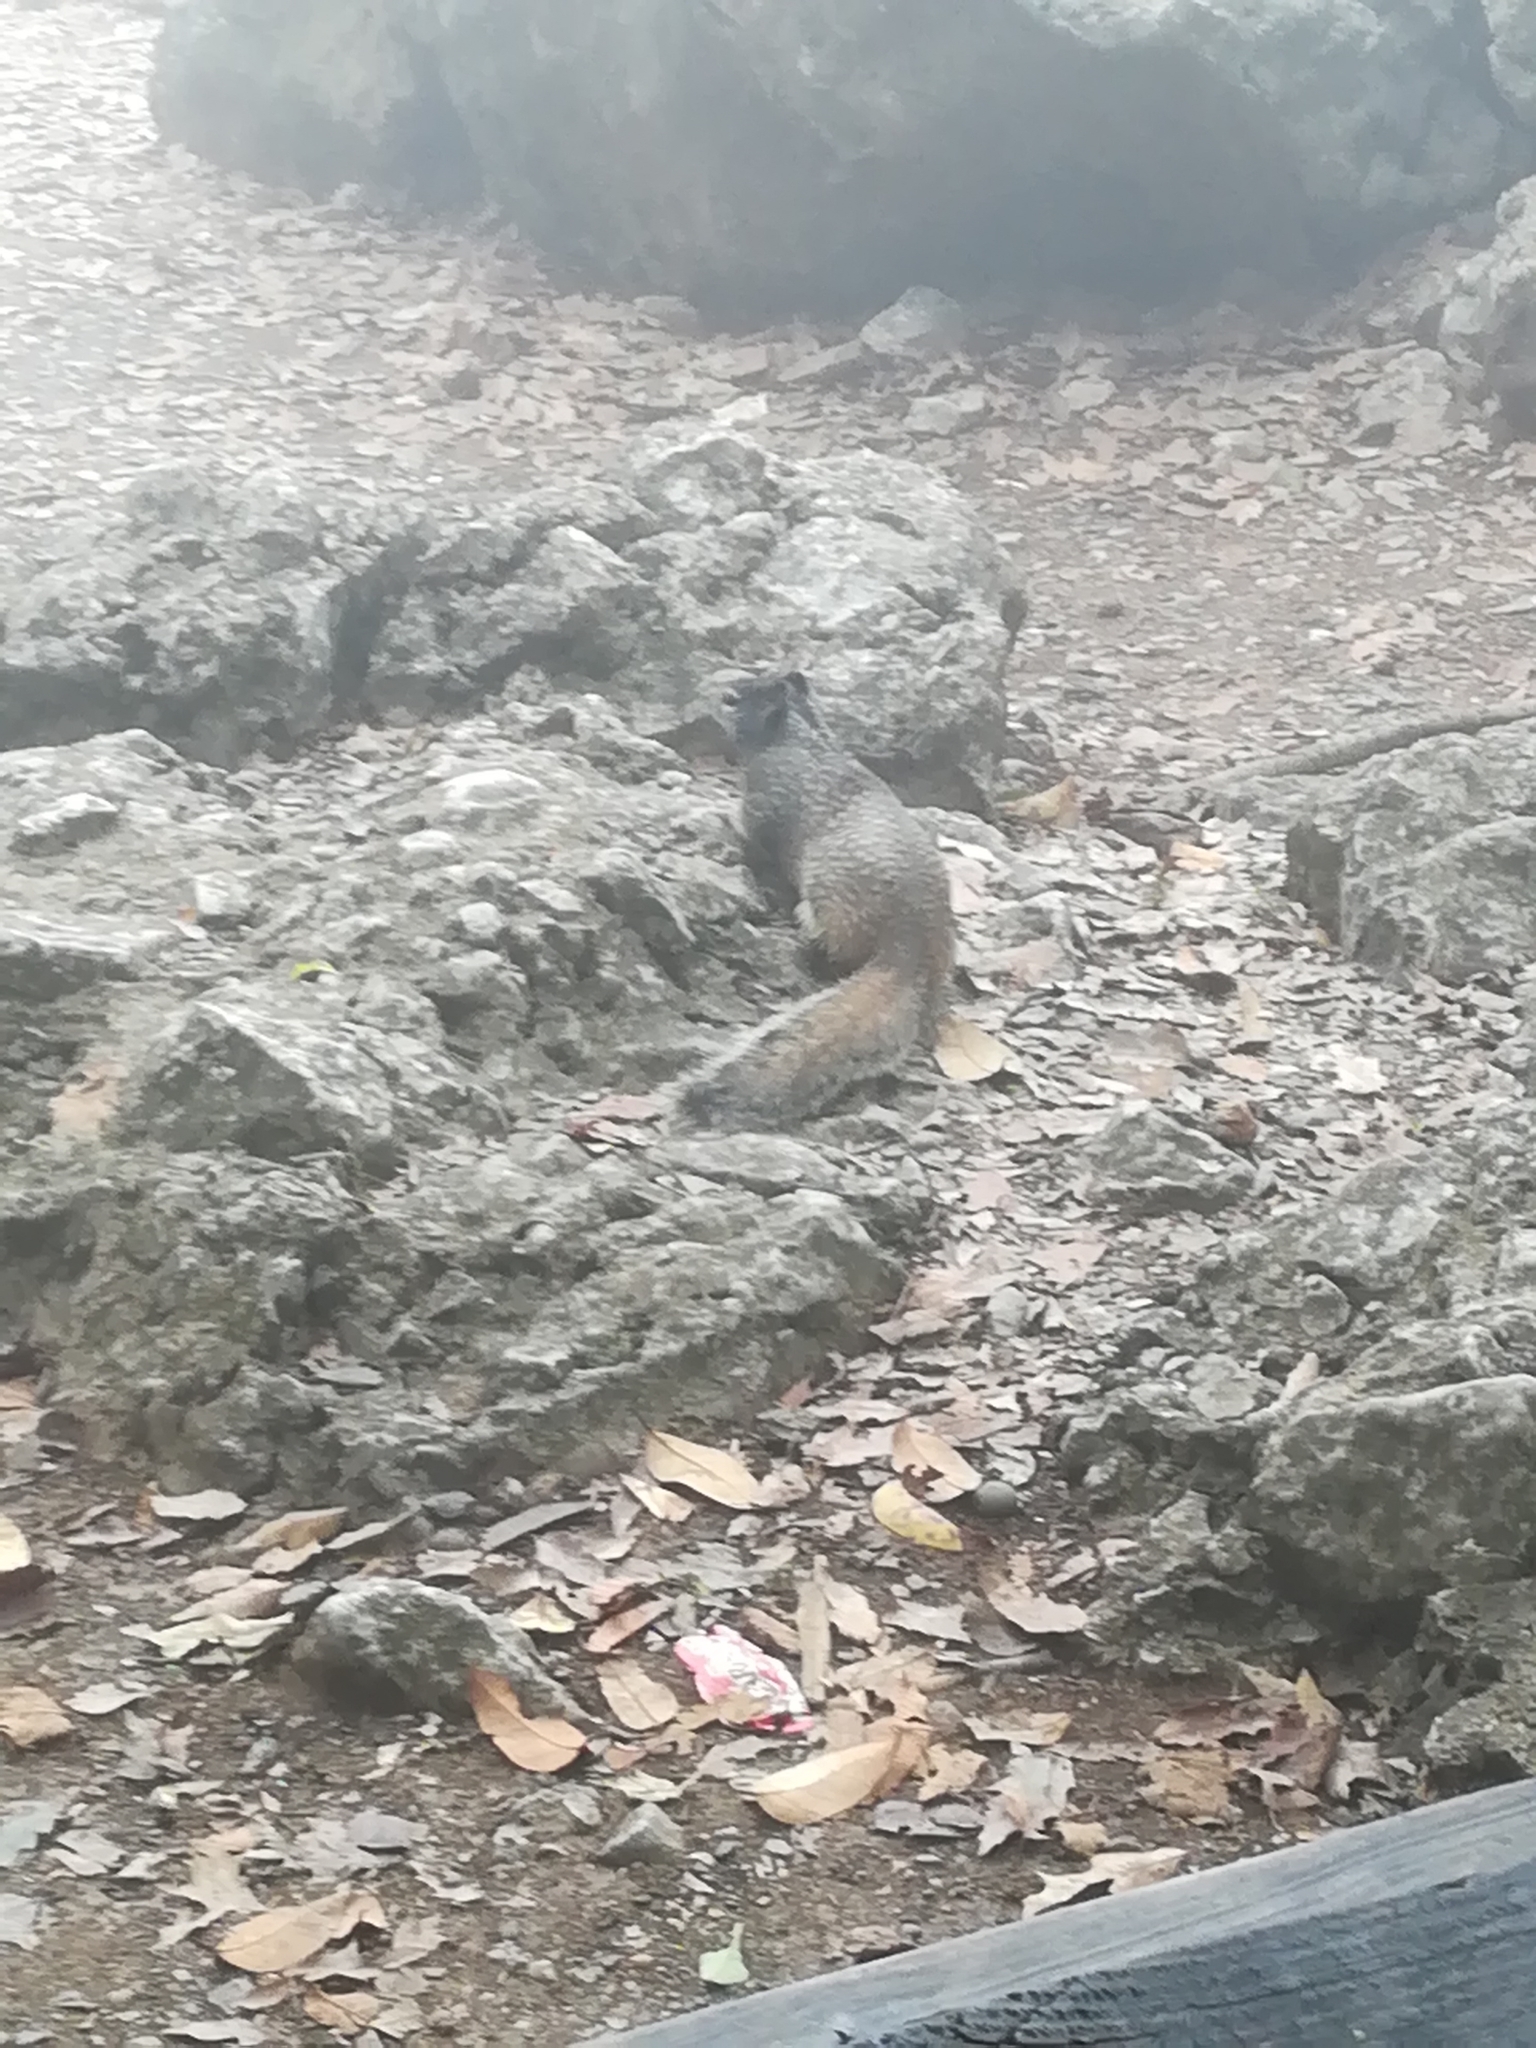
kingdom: Animalia
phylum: Chordata
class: Mammalia
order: Rodentia
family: Sciuridae
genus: Otospermophilus
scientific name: Otospermophilus variegatus
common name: Rock squirrel
